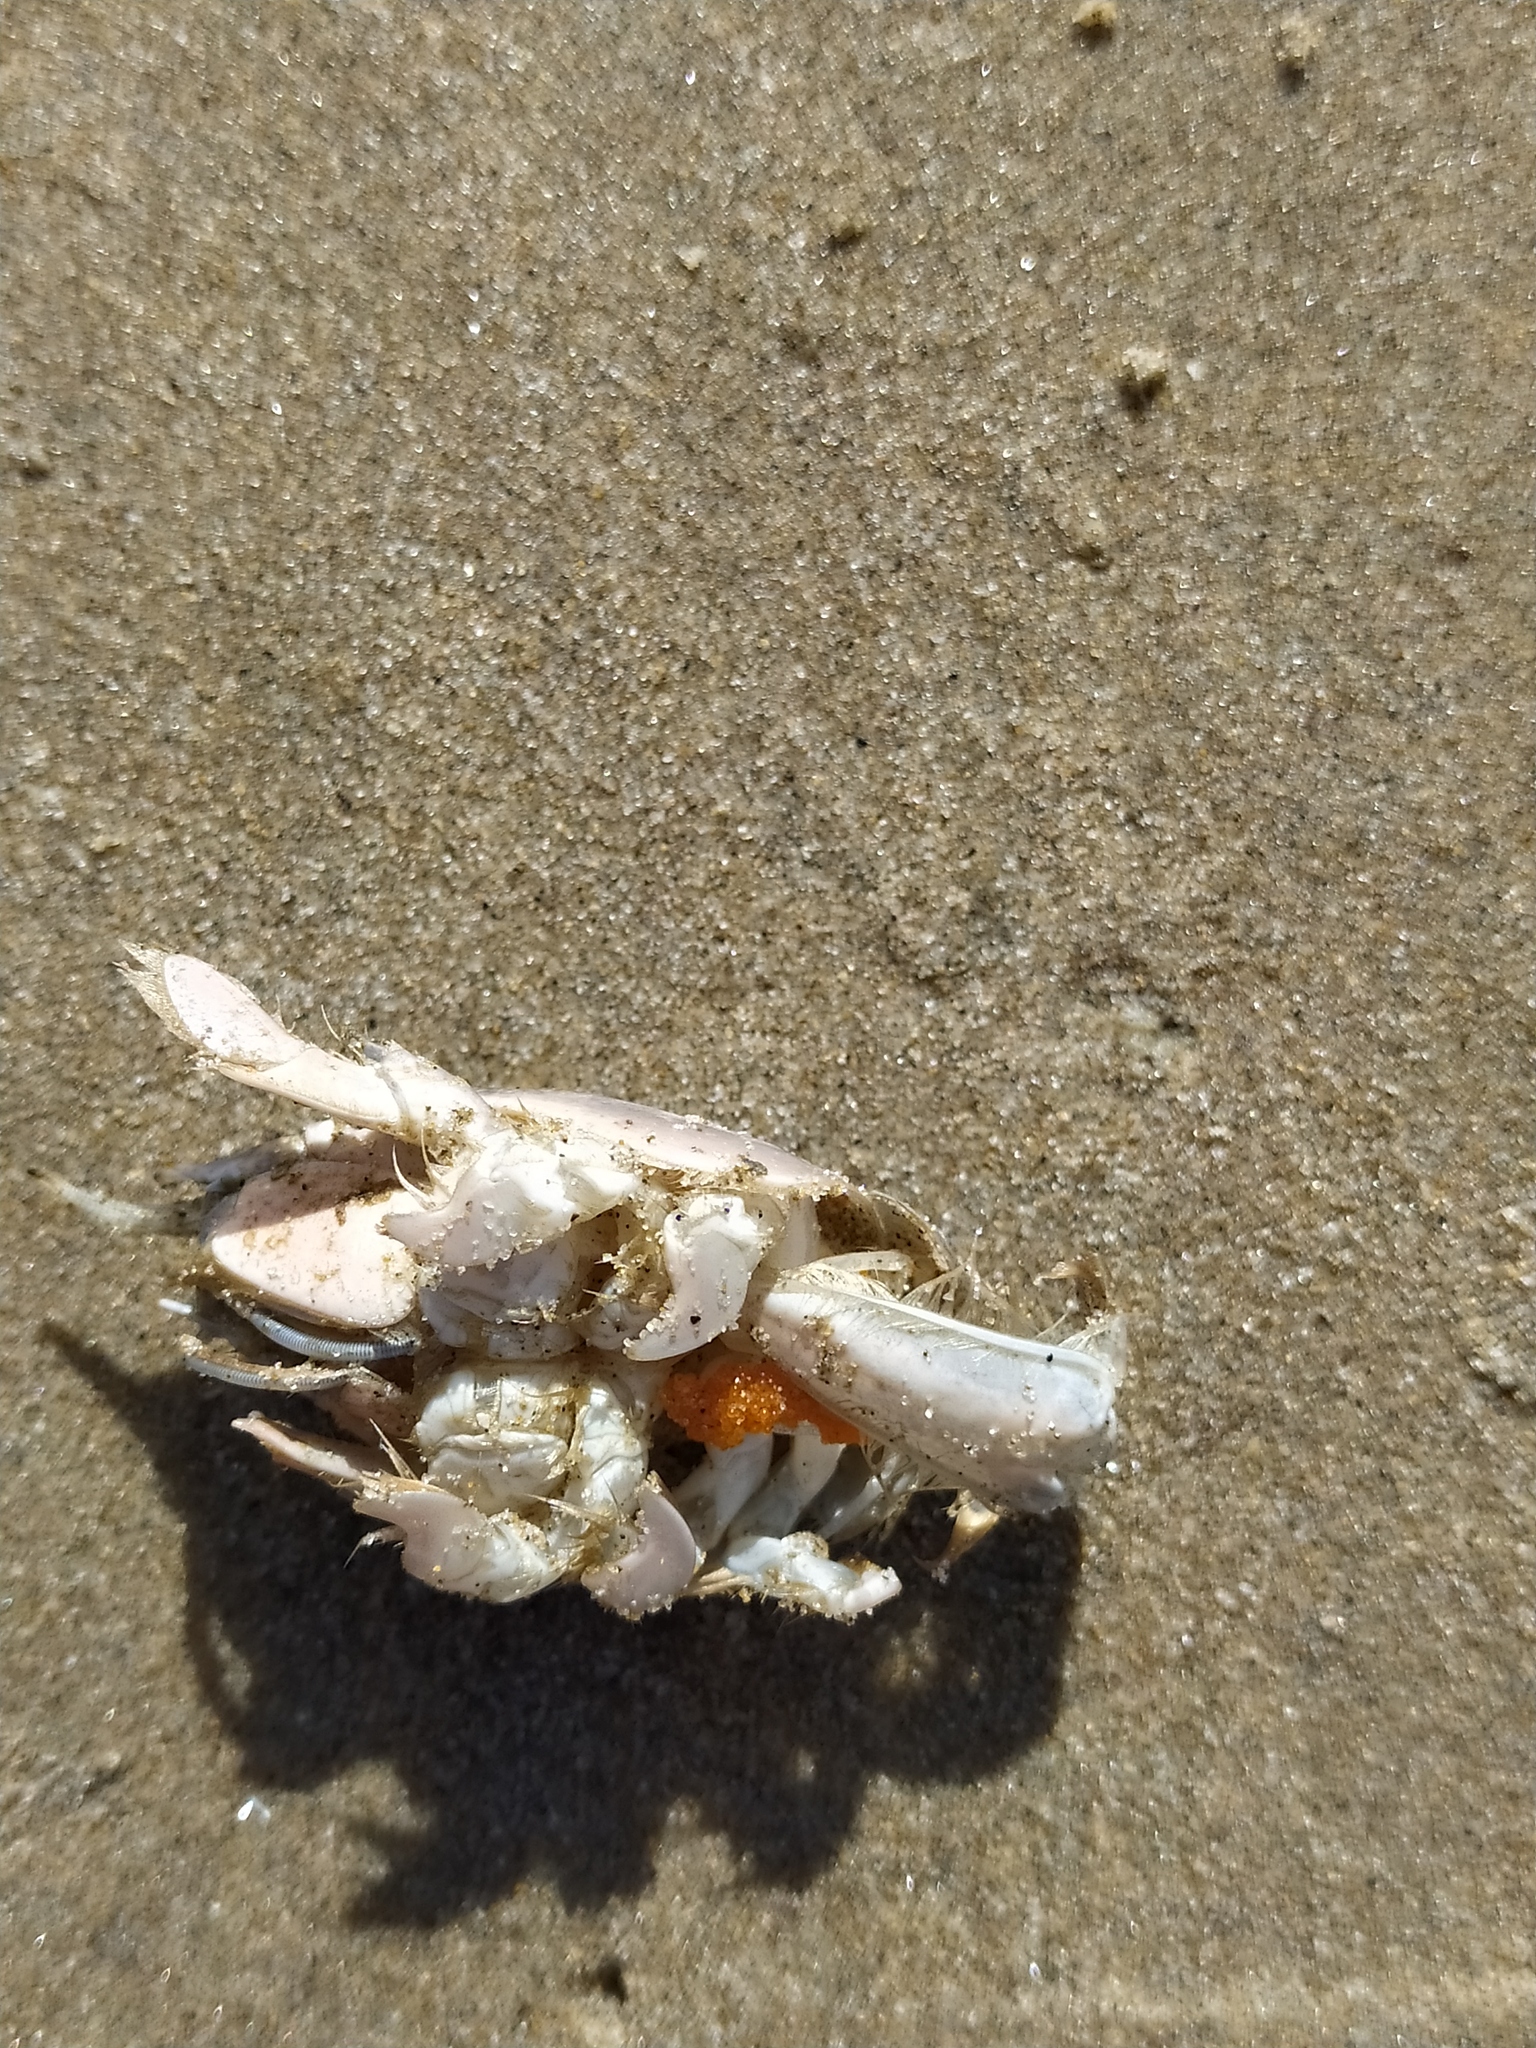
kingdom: Animalia
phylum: Arthropoda
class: Malacostraca
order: Decapoda
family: Hippidae
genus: Emerita
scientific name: Emerita analoga
